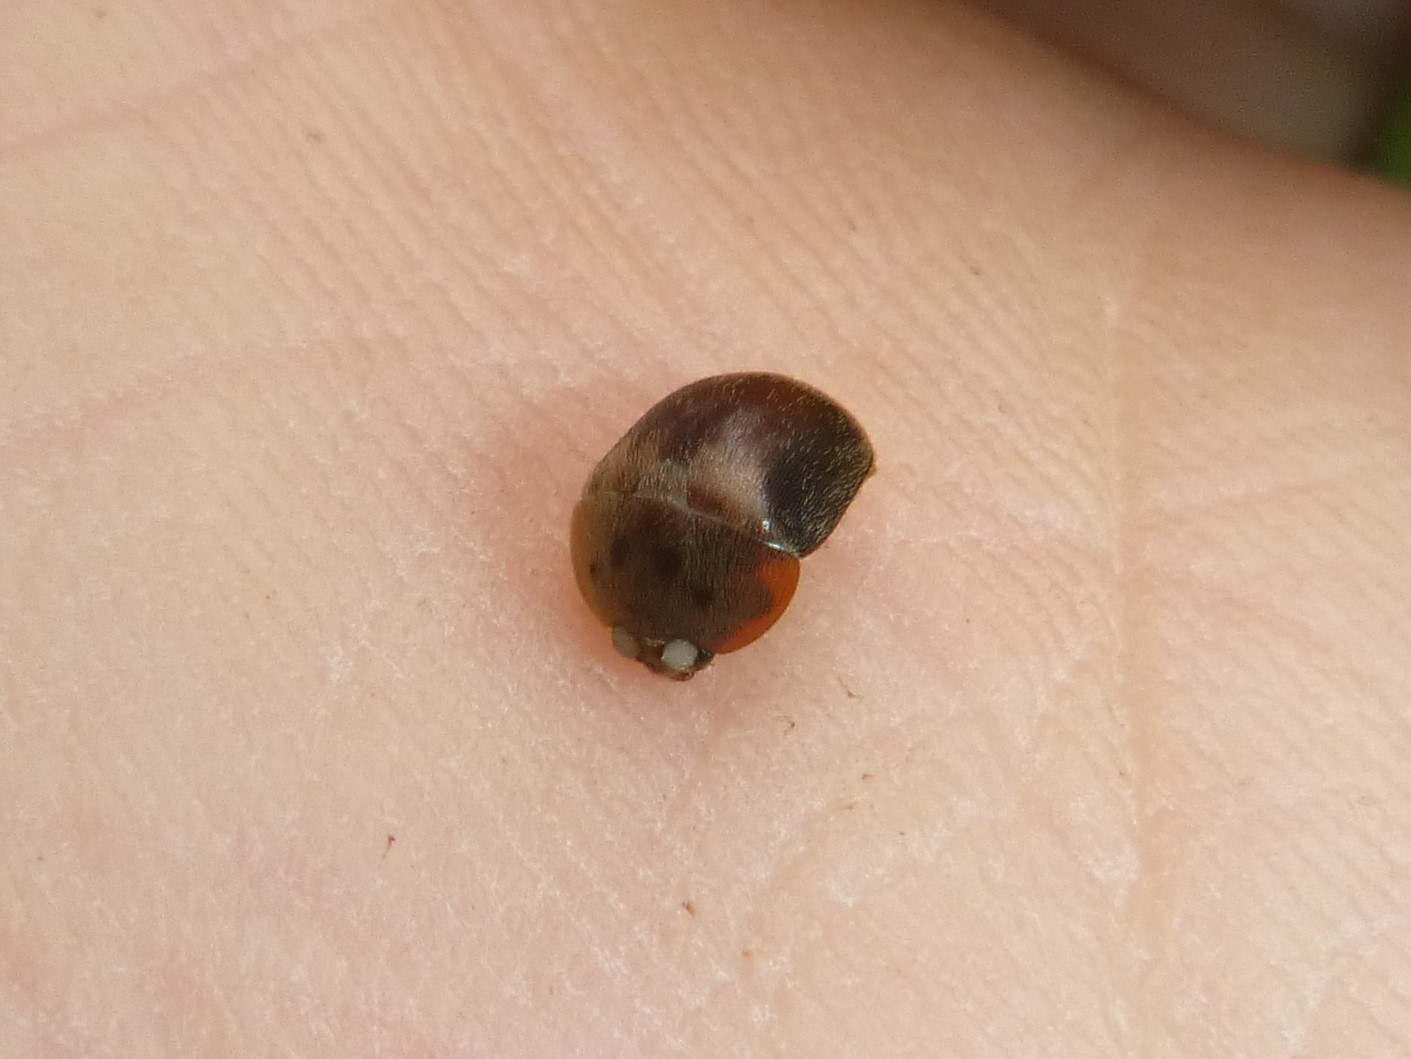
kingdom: Animalia
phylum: Arthropoda
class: Insecta
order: Coleoptera
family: Nitidulidae
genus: Cychramus
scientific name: Cychramus variegatus
